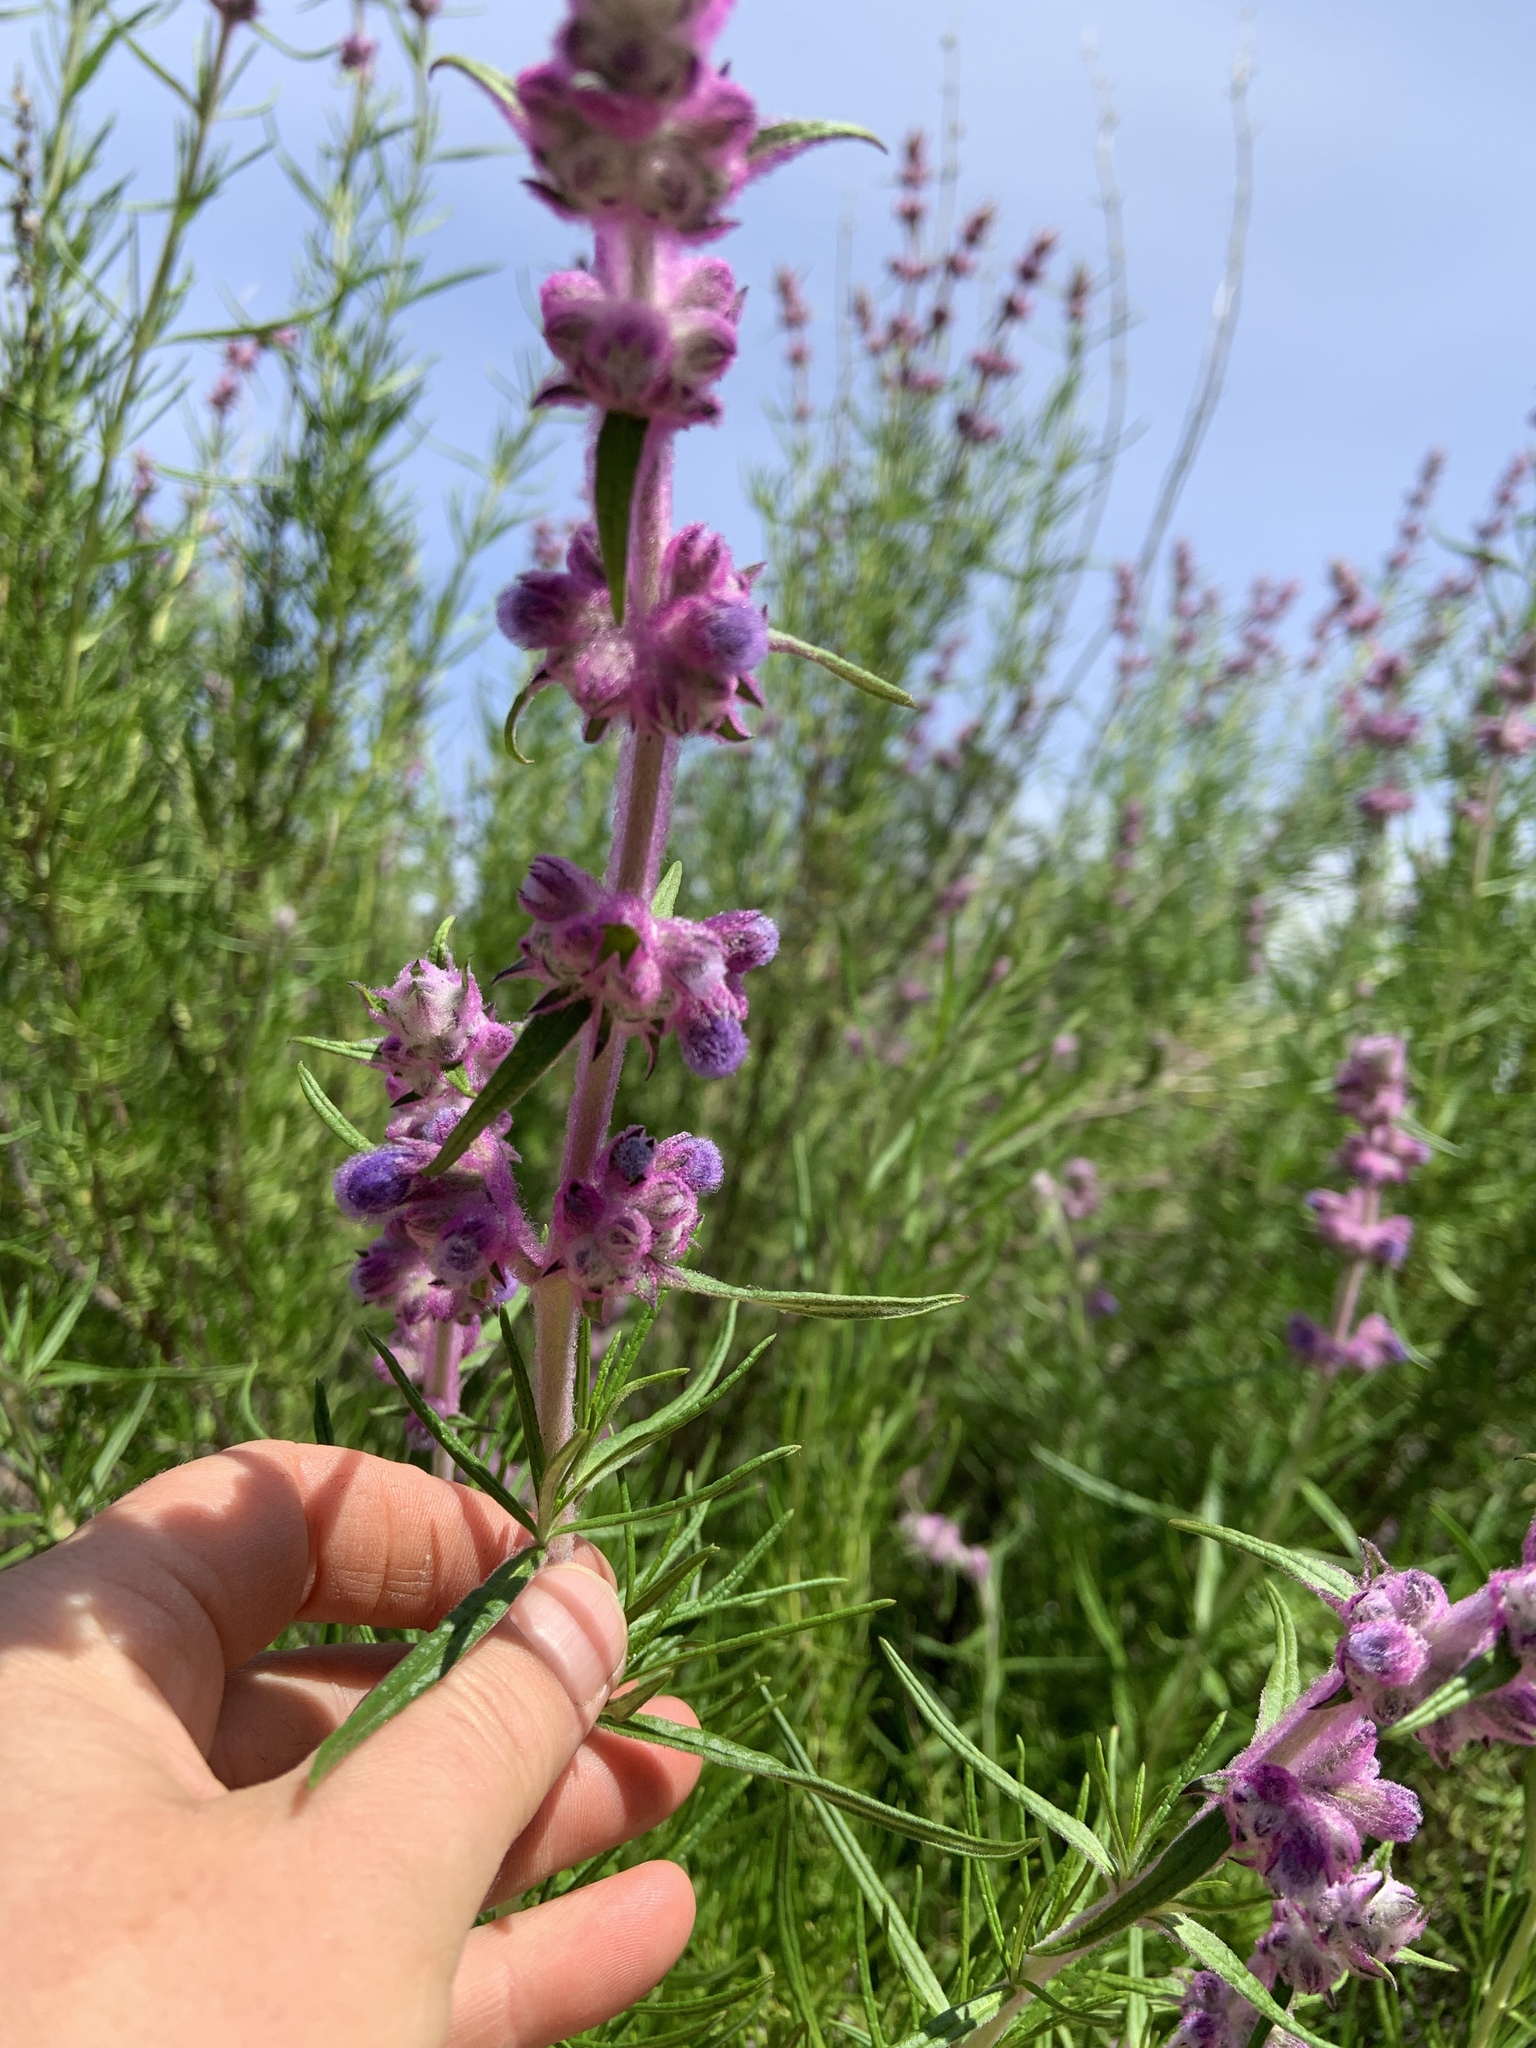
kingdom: Plantae
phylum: Tracheophyta
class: Magnoliopsida
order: Lamiales
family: Lamiaceae
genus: Trichostema
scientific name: Trichostema lanatum
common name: Woolly bluecurls
